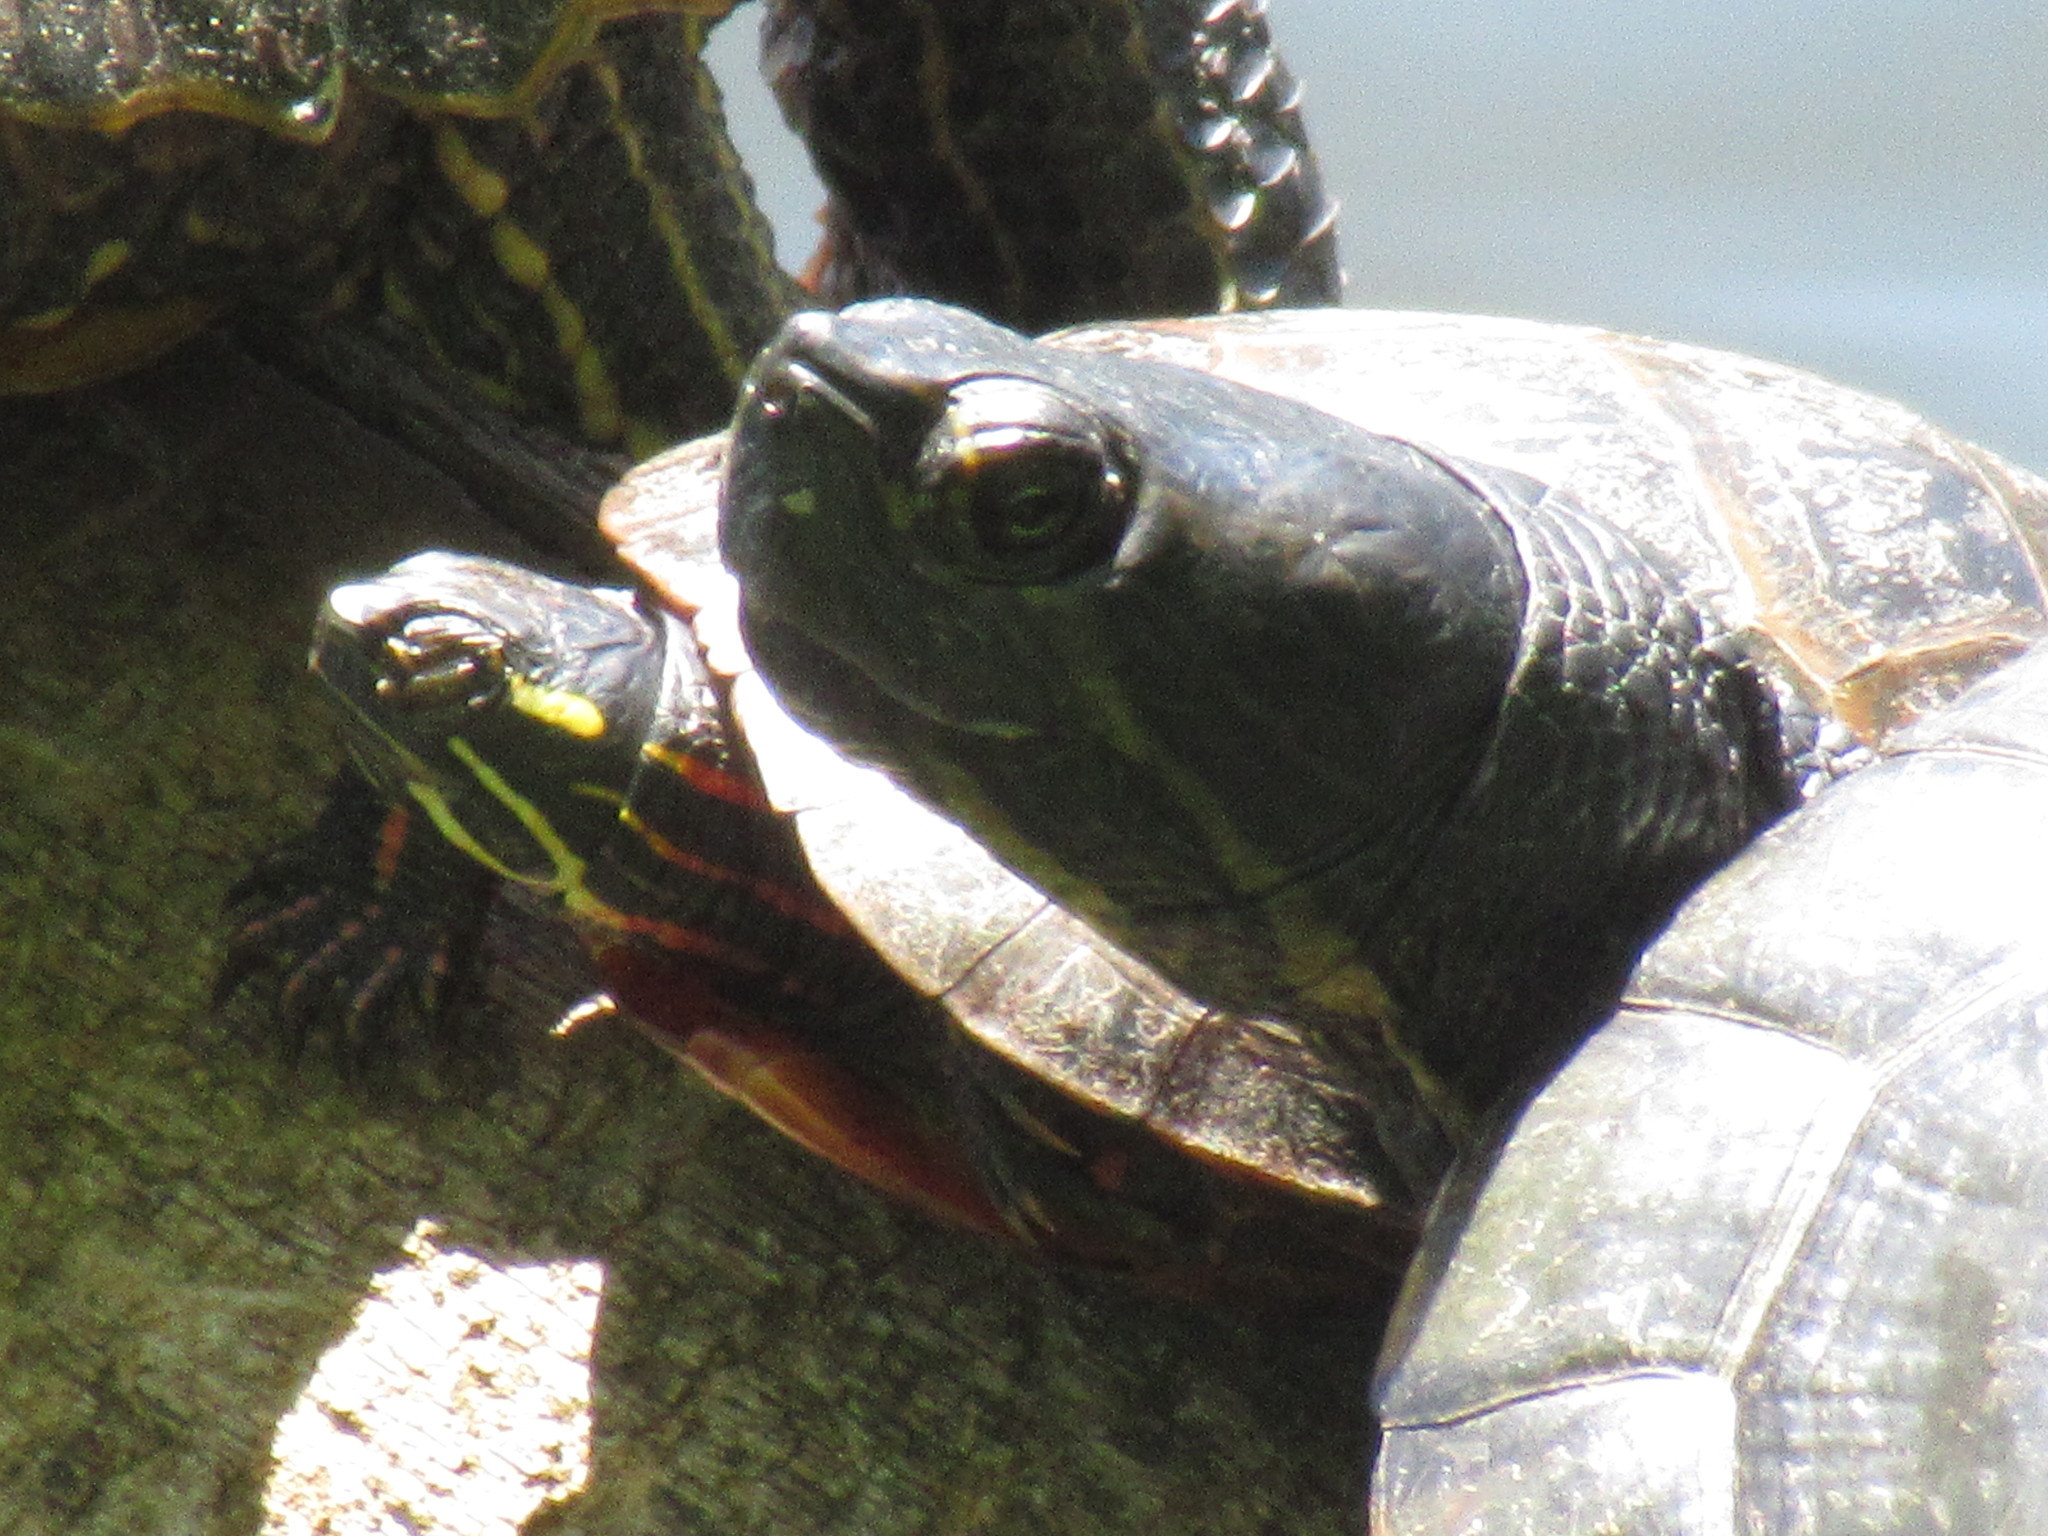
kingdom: Animalia
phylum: Chordata
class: Testudines
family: Emydidae
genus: Chrysemys
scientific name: Chrysemys picta
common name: Painted turtle
